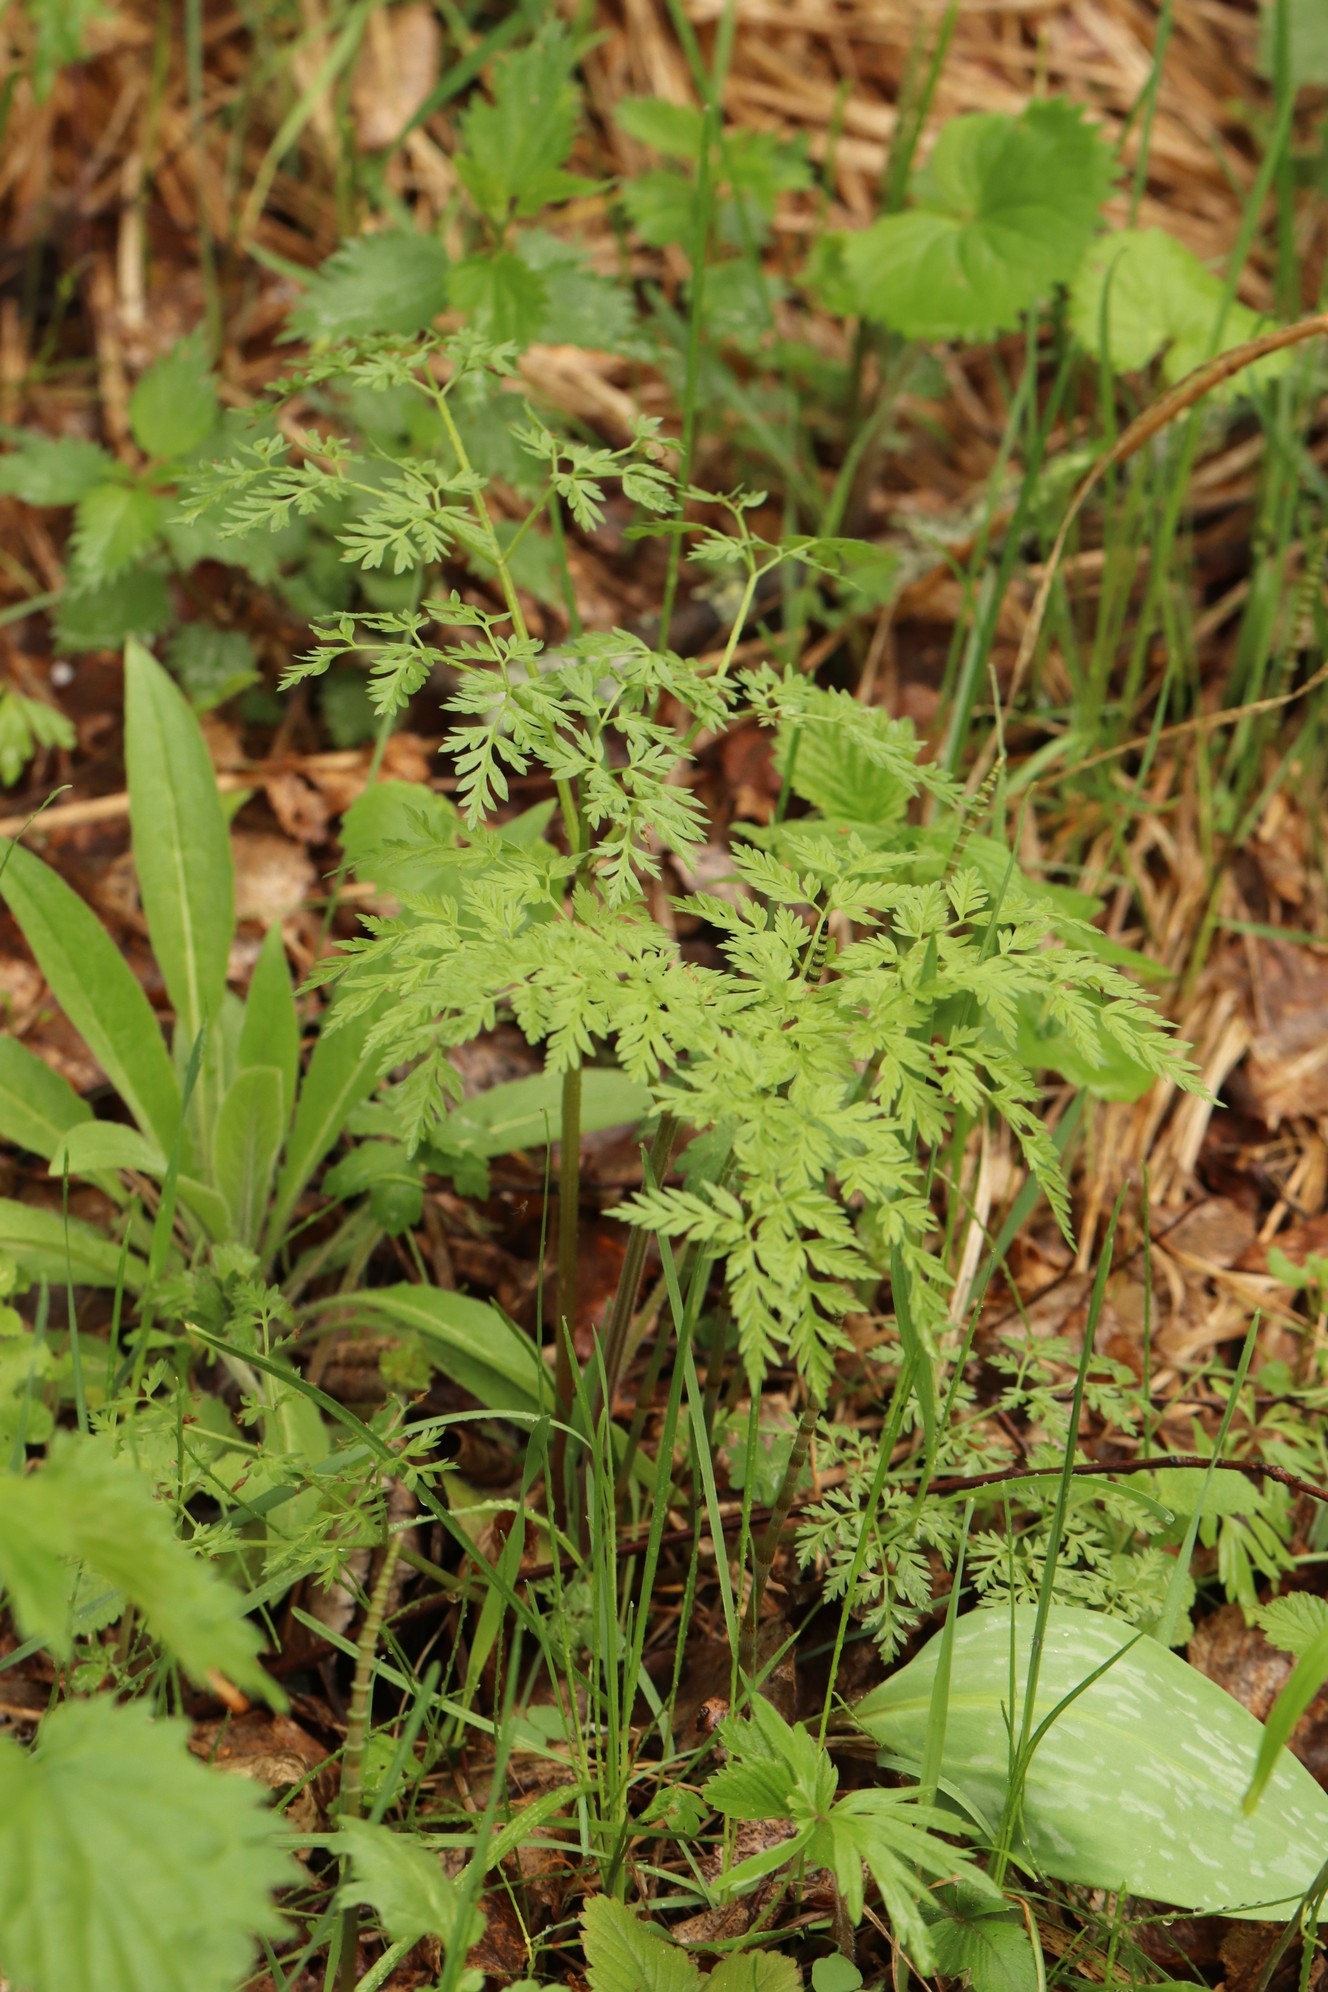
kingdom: Plantae
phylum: Tracheophyta
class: Magnoliopsida
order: Apiales
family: Apiaceae
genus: Anthriscus
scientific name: Anthriscus sylvestris
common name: Cow parsley
